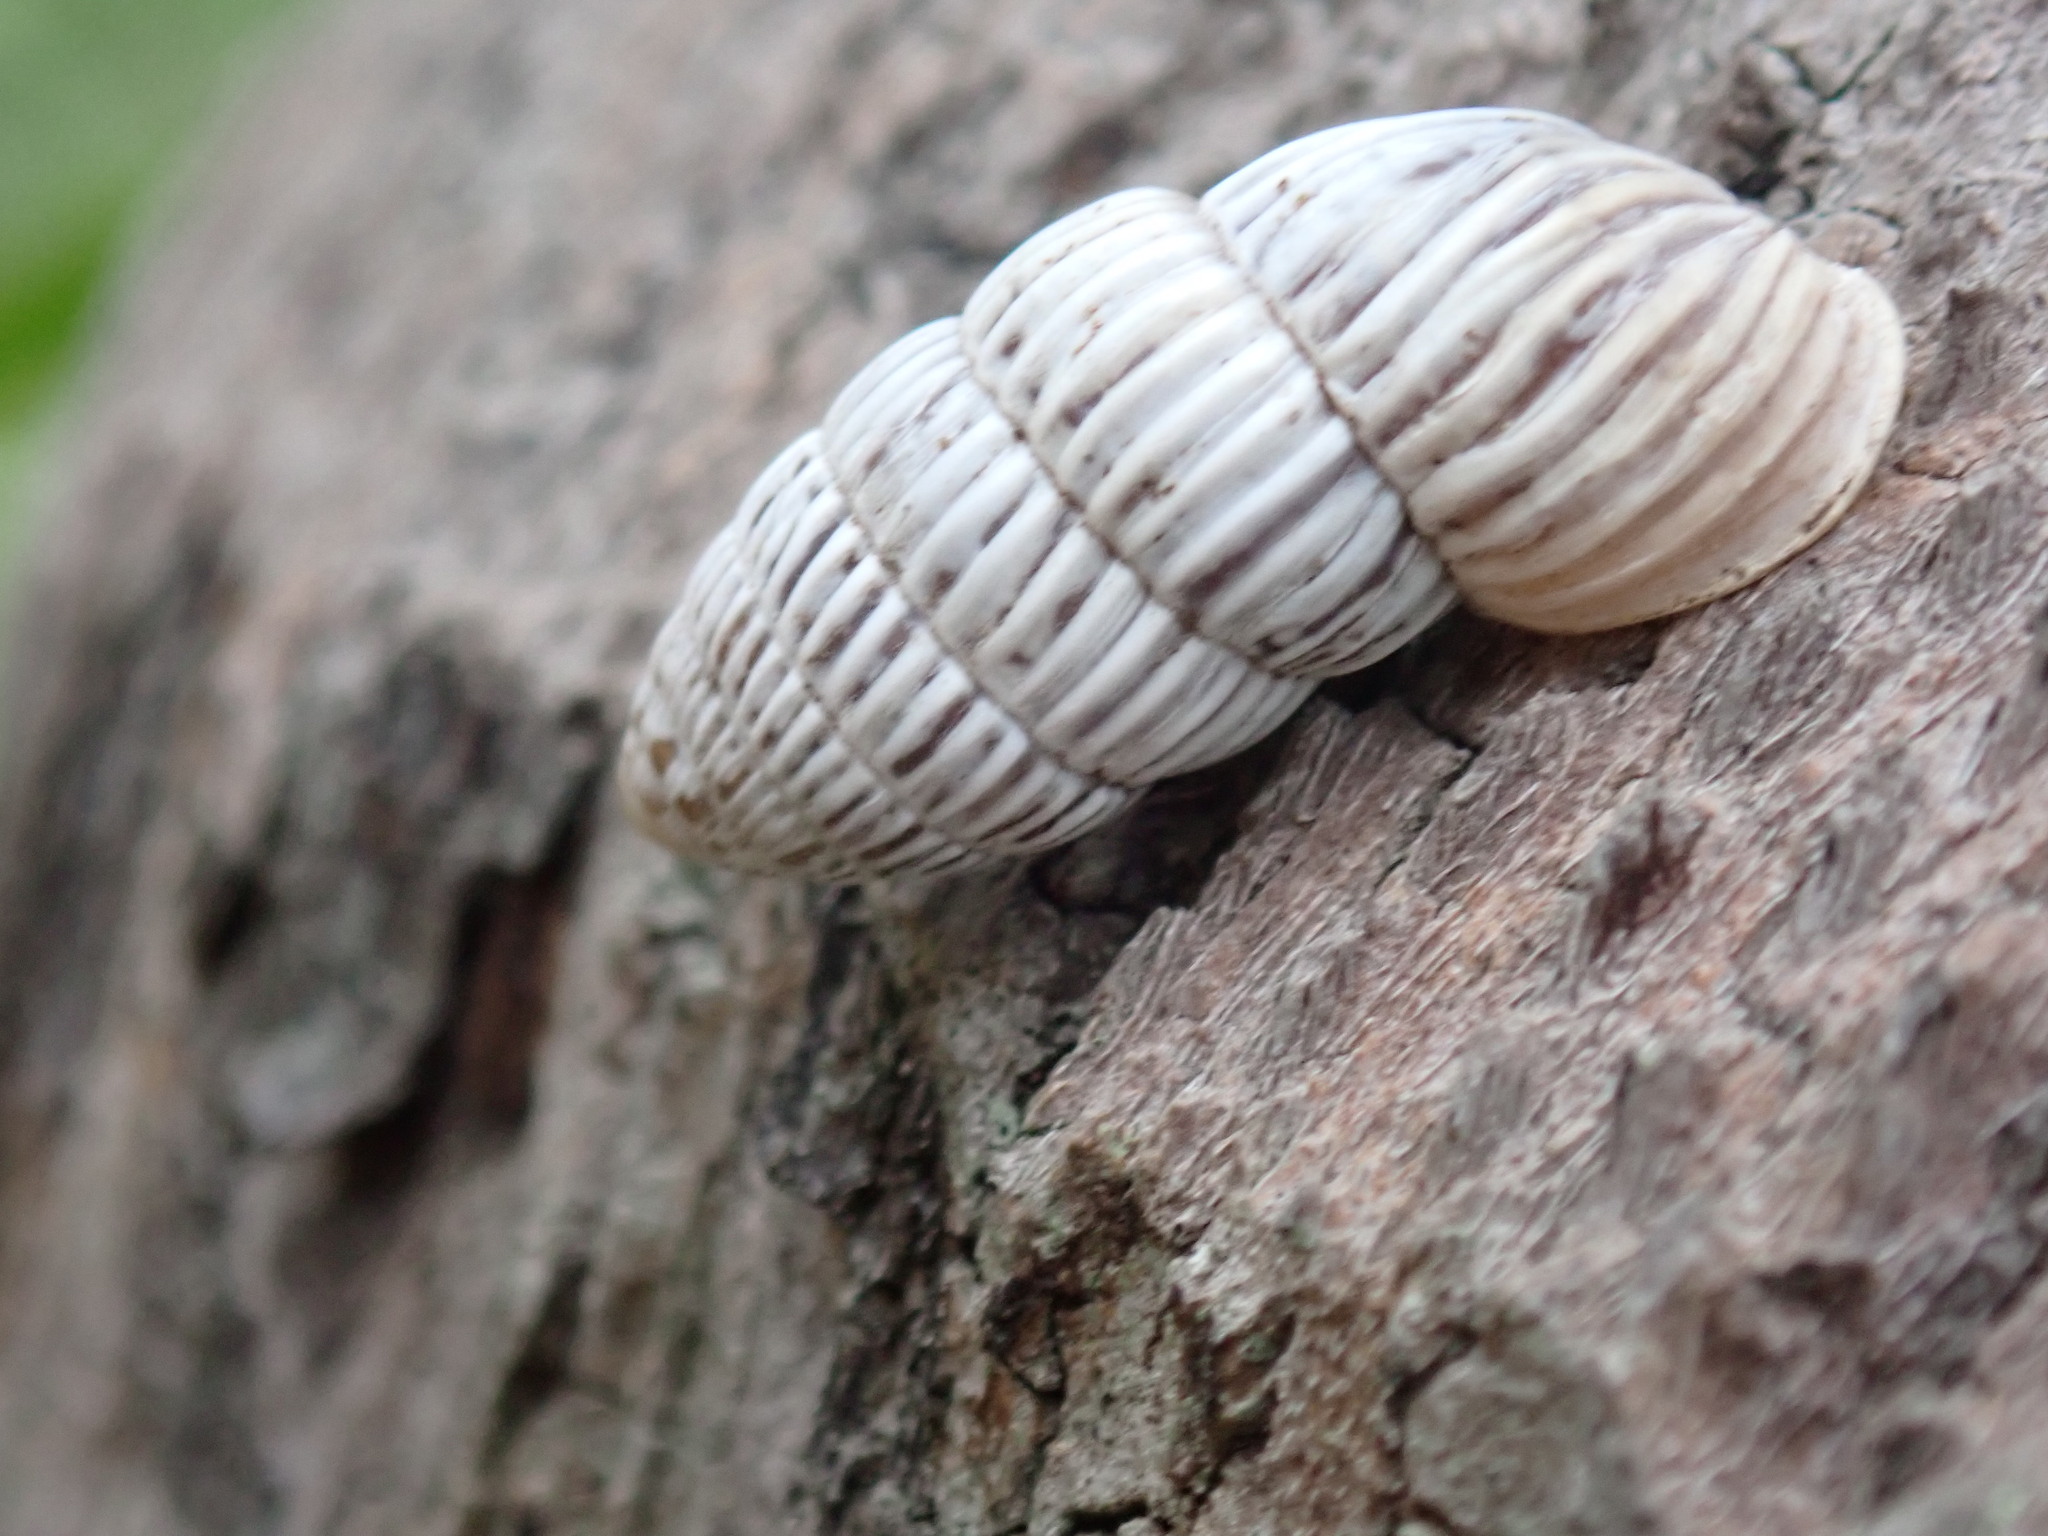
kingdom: Animalia
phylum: Mollusca
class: Gastropoda
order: Stylommatophora
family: Cerionidae
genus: Cerion
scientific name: Cerion striatellum
